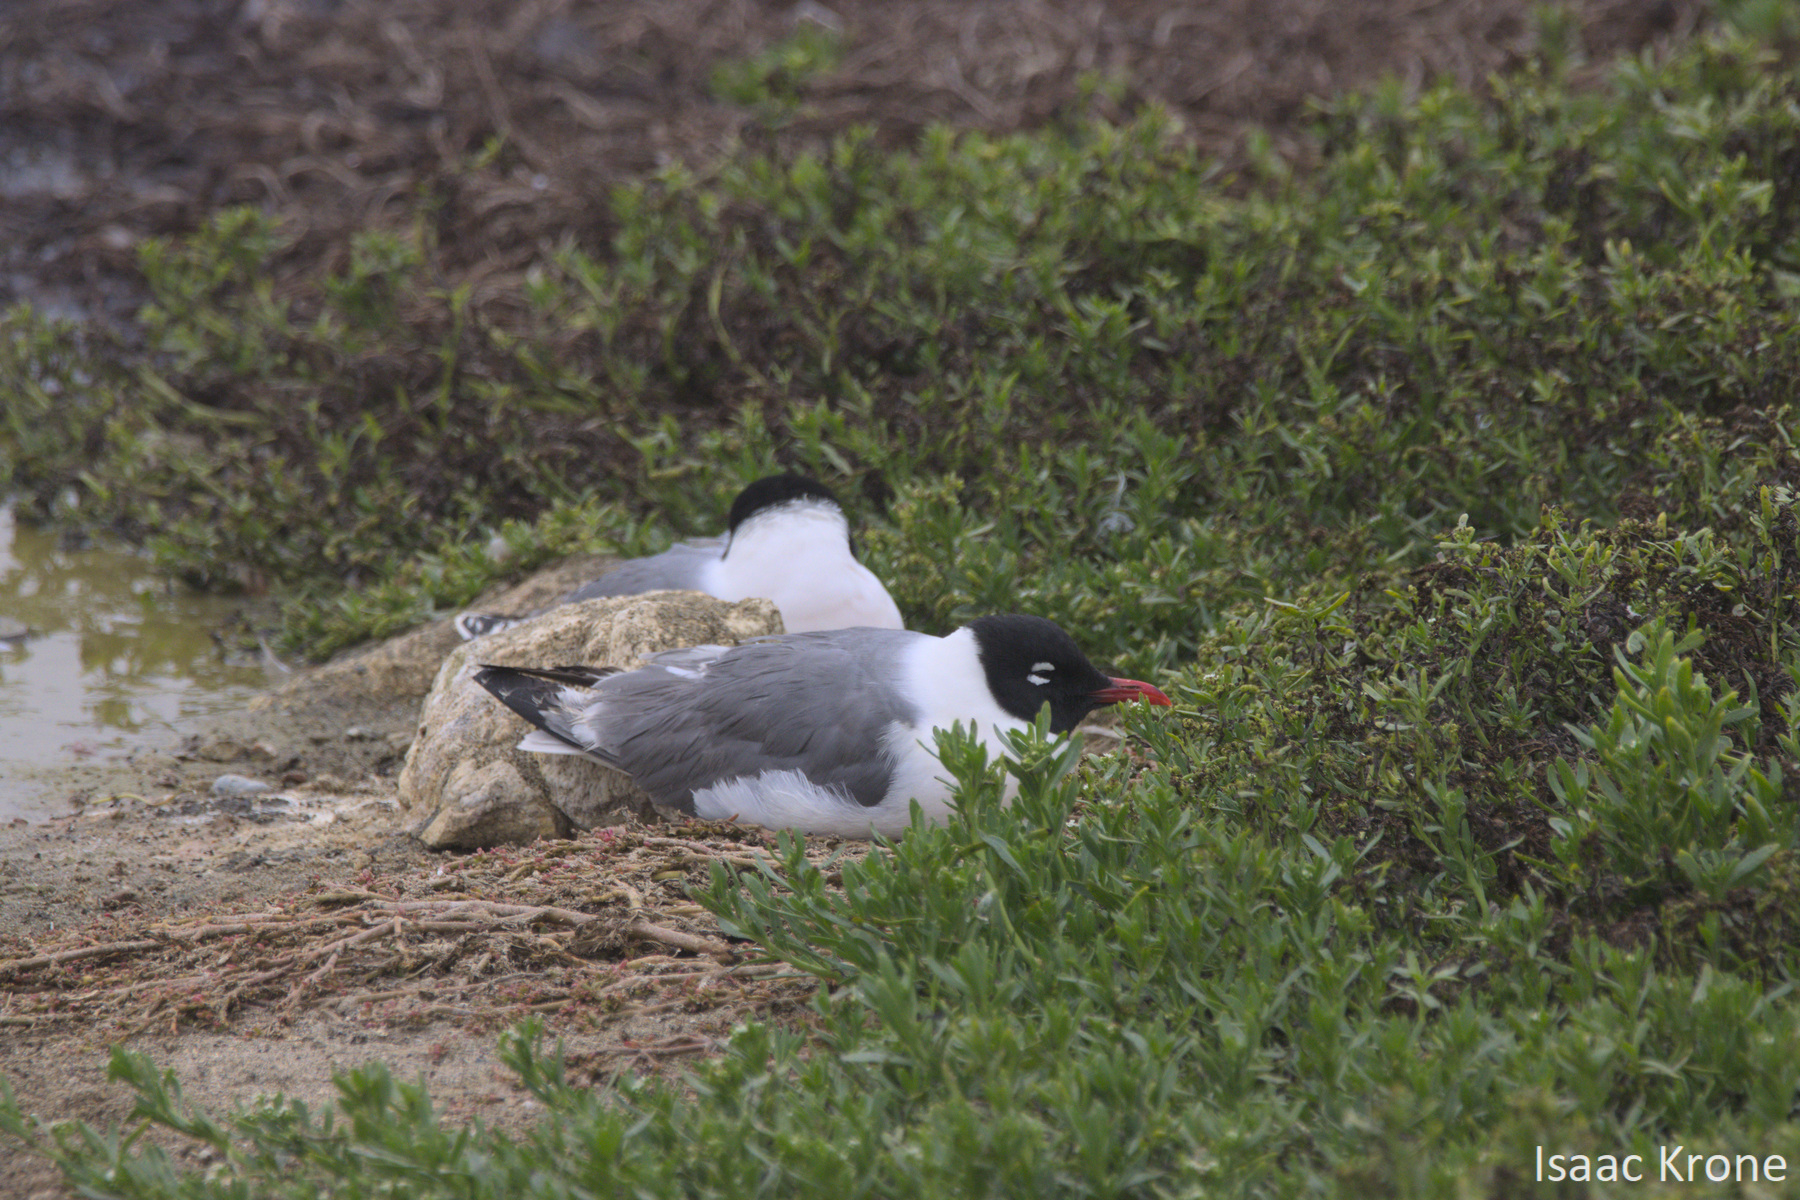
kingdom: Animalia
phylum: Chordata
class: Aves
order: Charadriiformes
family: Laridae
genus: Leucophaeus
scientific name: Leucophaeus pipixcan
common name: Franklin's gull
